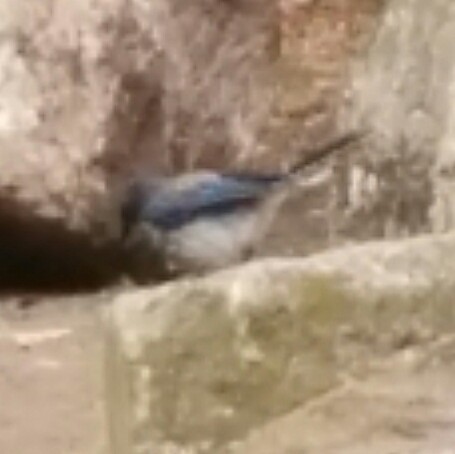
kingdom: Animalia
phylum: Chordata
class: Aves
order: Passeriformes
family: Corvidae
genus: Aphelocoma
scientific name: Aphelocoma californica
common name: California scrub-jay
